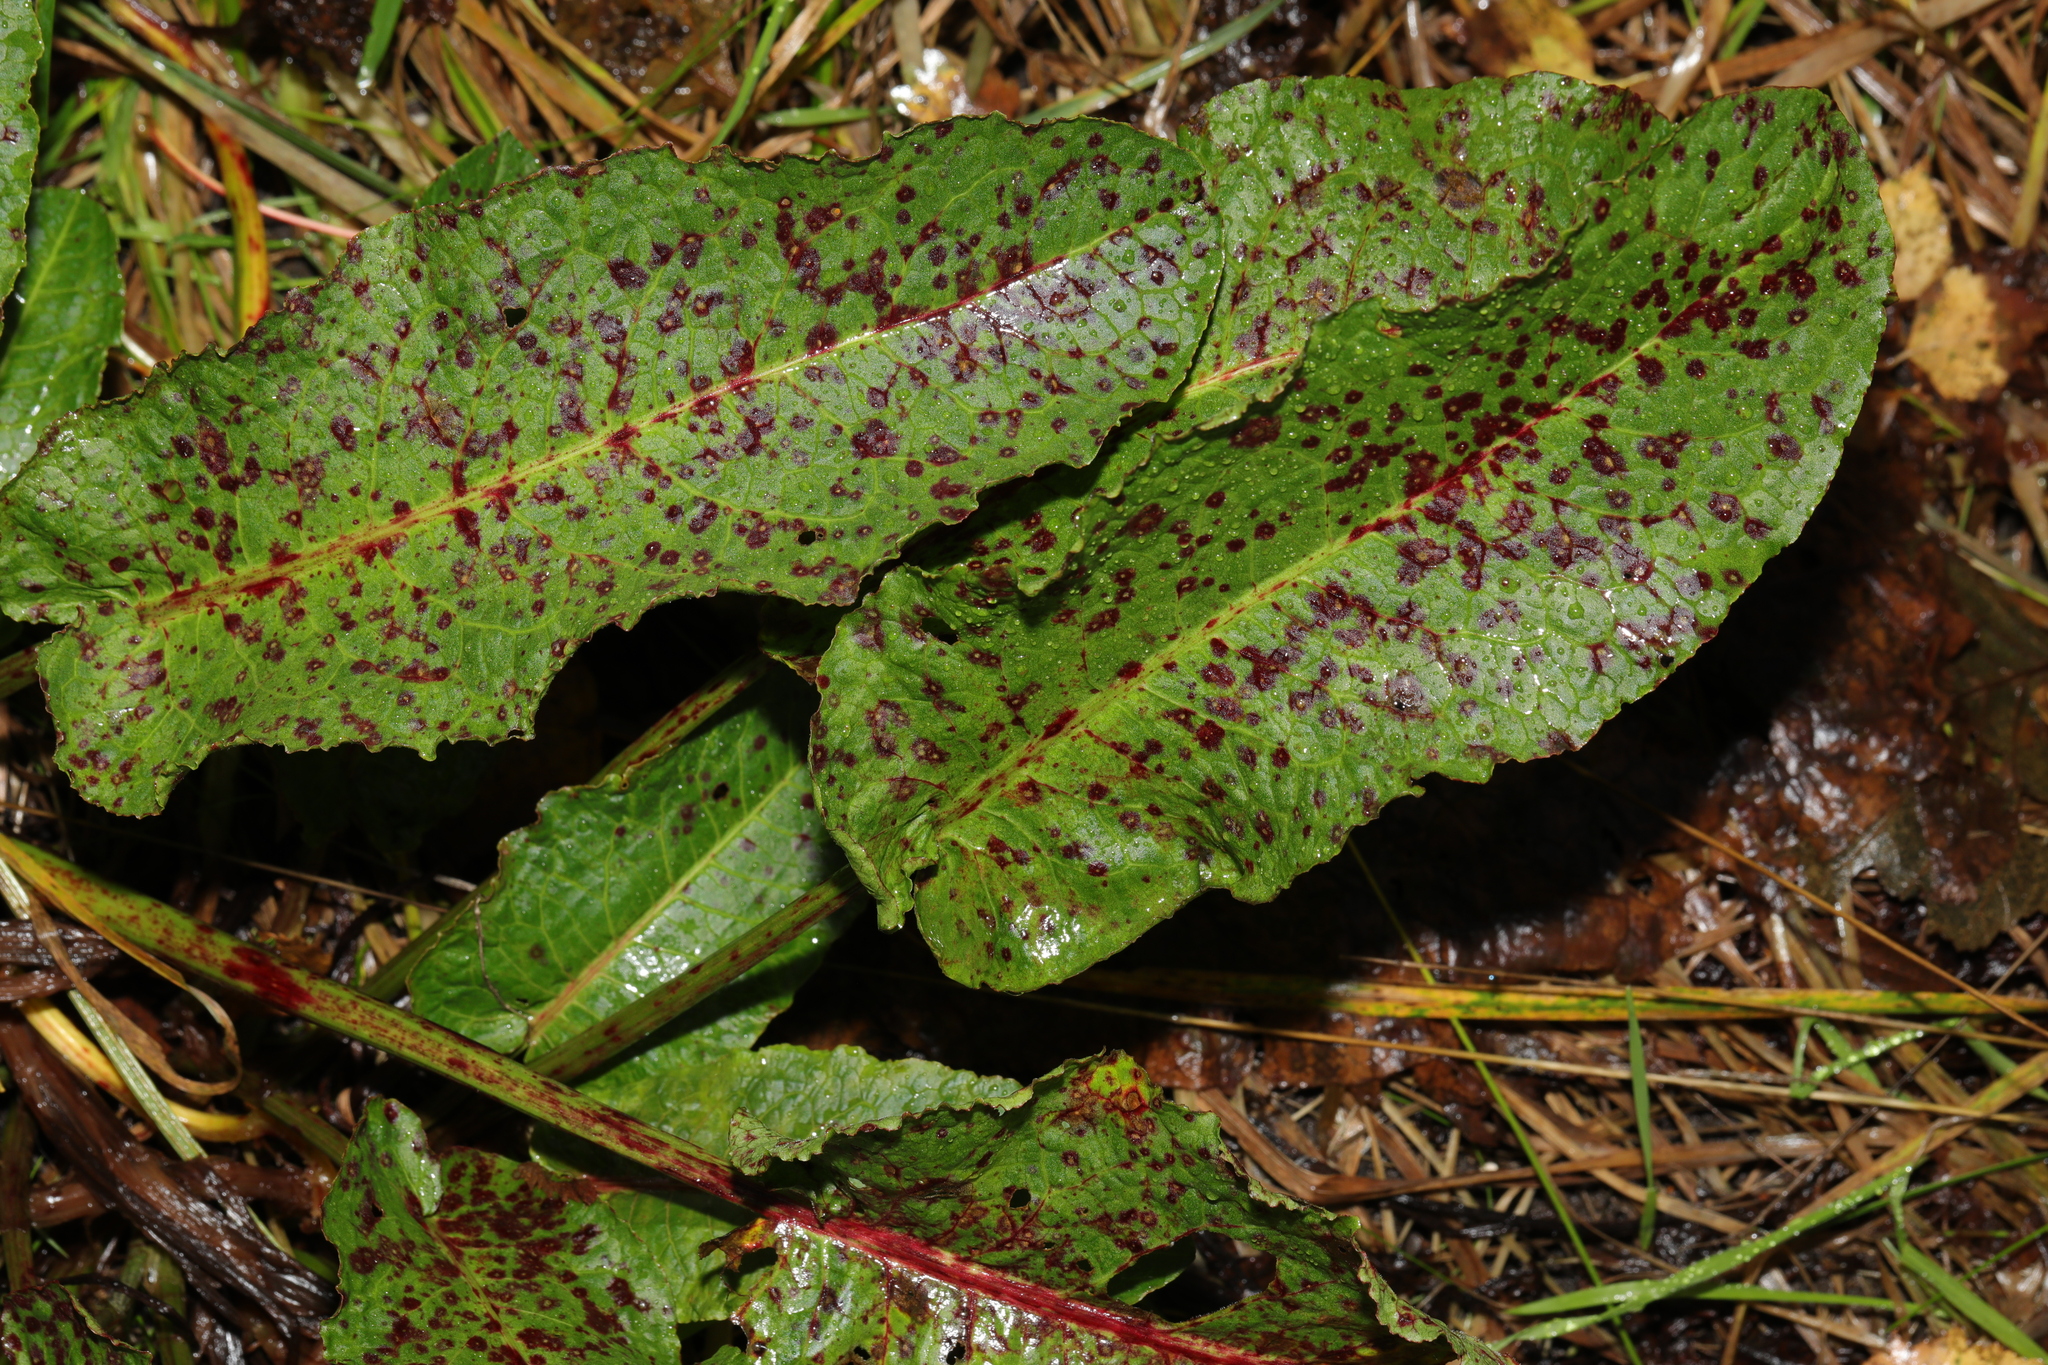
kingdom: Plantae
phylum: Tracheophyta
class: Magnoliopsida
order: Caryophyllales
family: Polygonaceae
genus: Rumex
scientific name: Rumex obtusifolius
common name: Bitter dock
